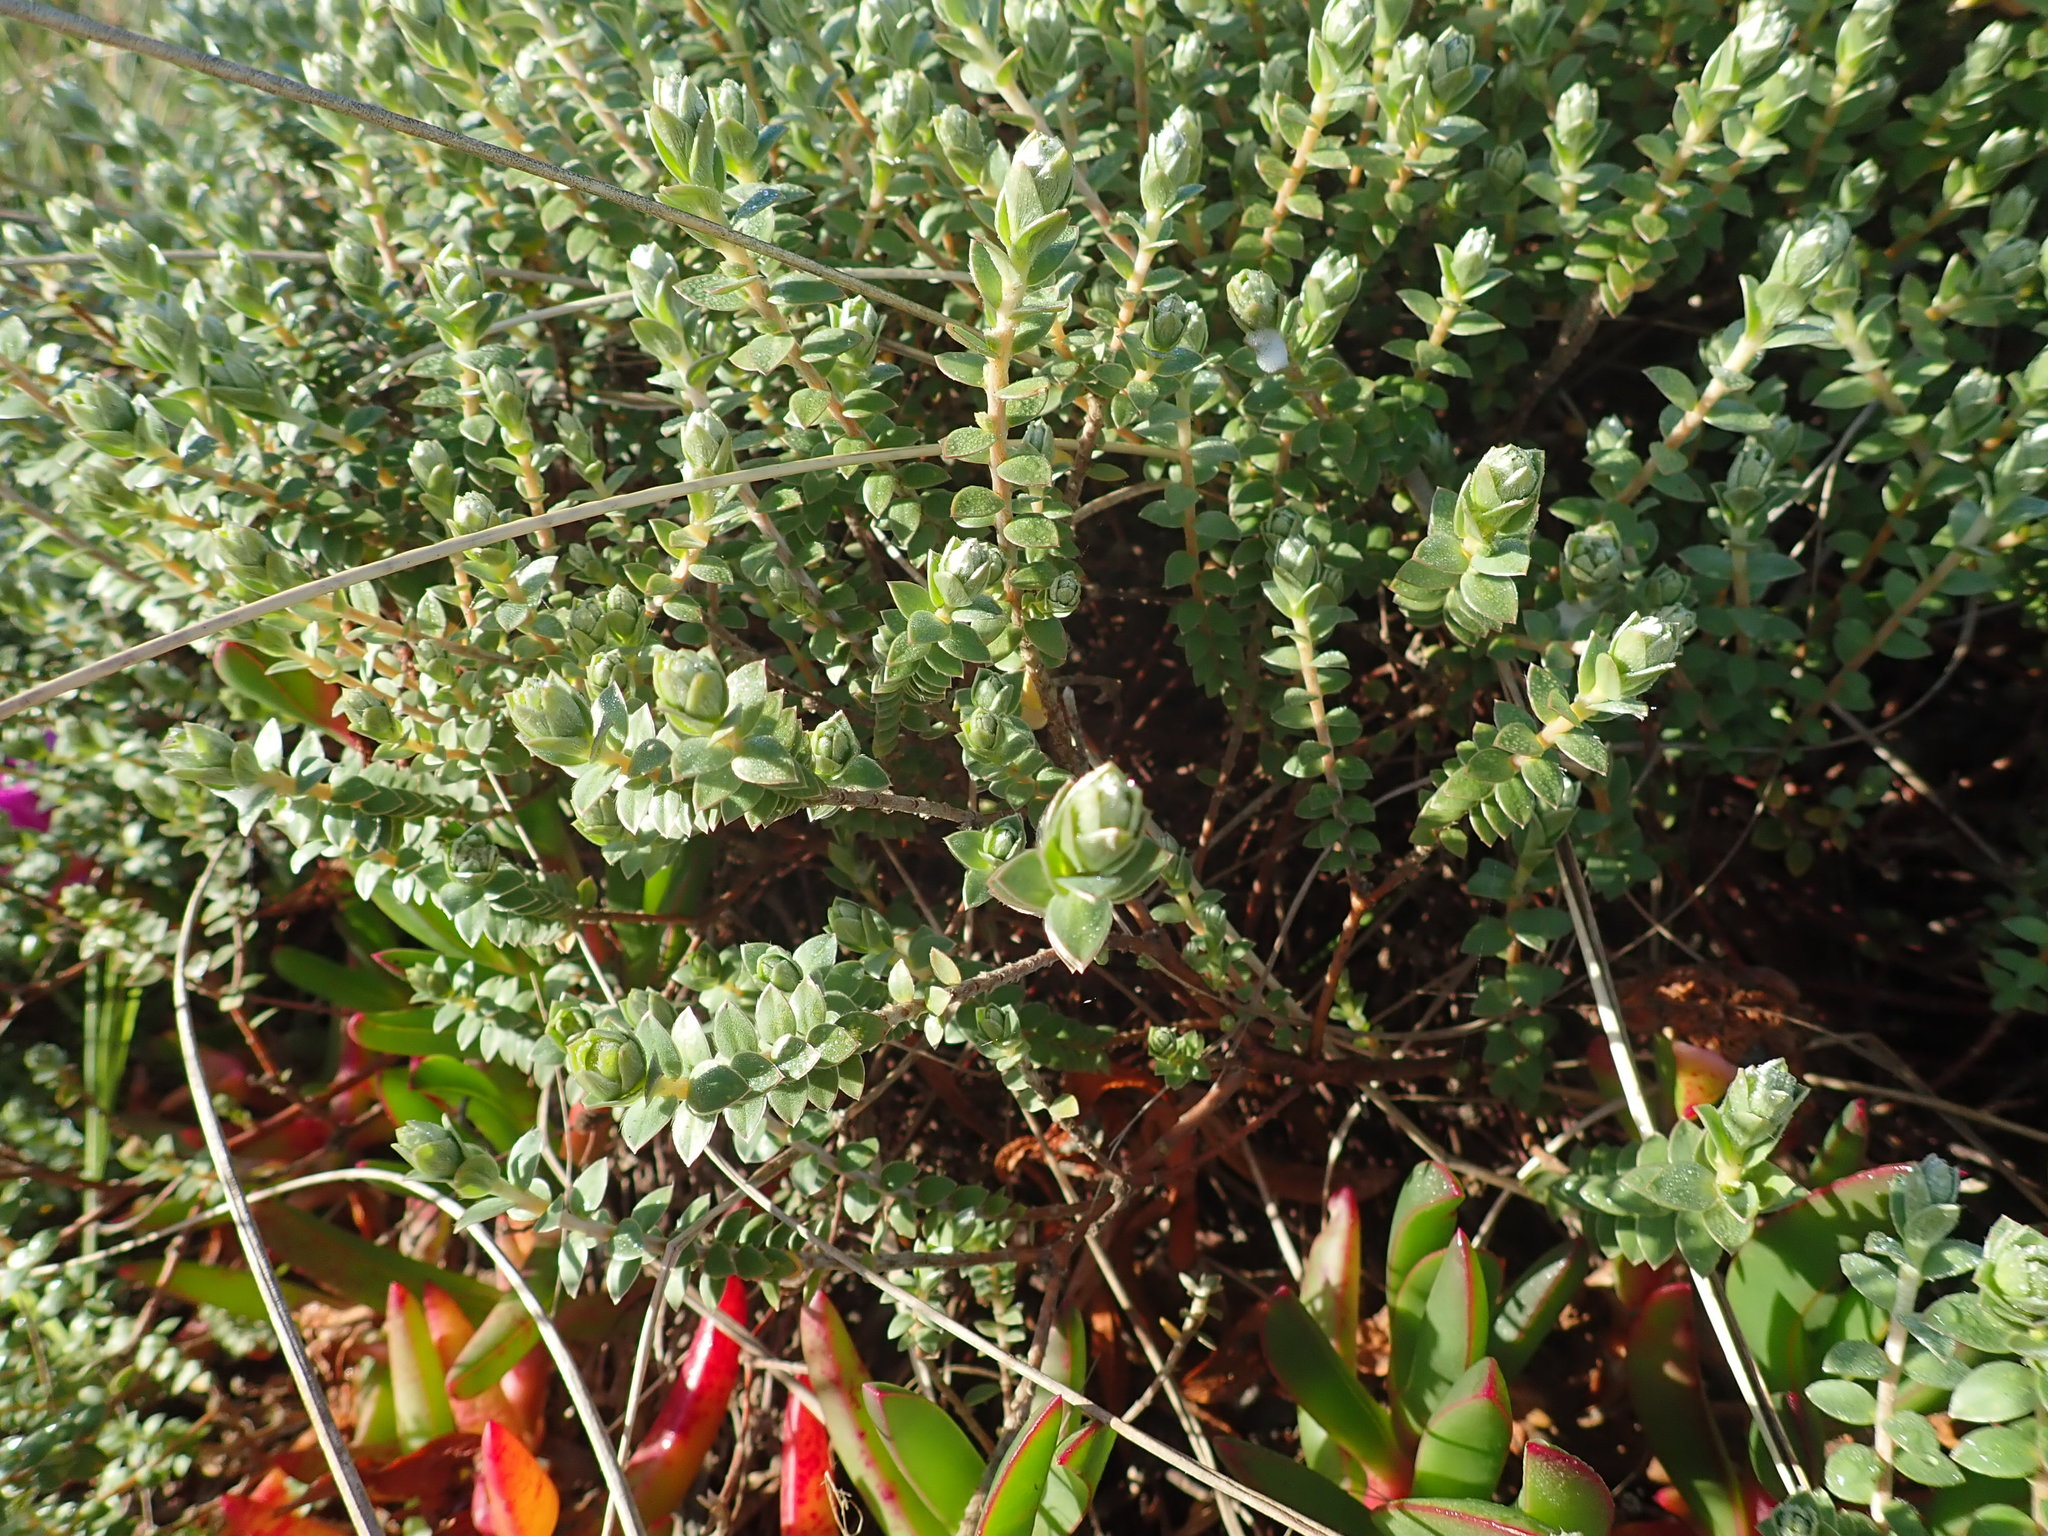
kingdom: Plantae
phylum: Tracheophyta
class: Magnoliopsida
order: Malvales
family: Thymelaeaceae
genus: Pimelea
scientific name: Pimelea villosa
